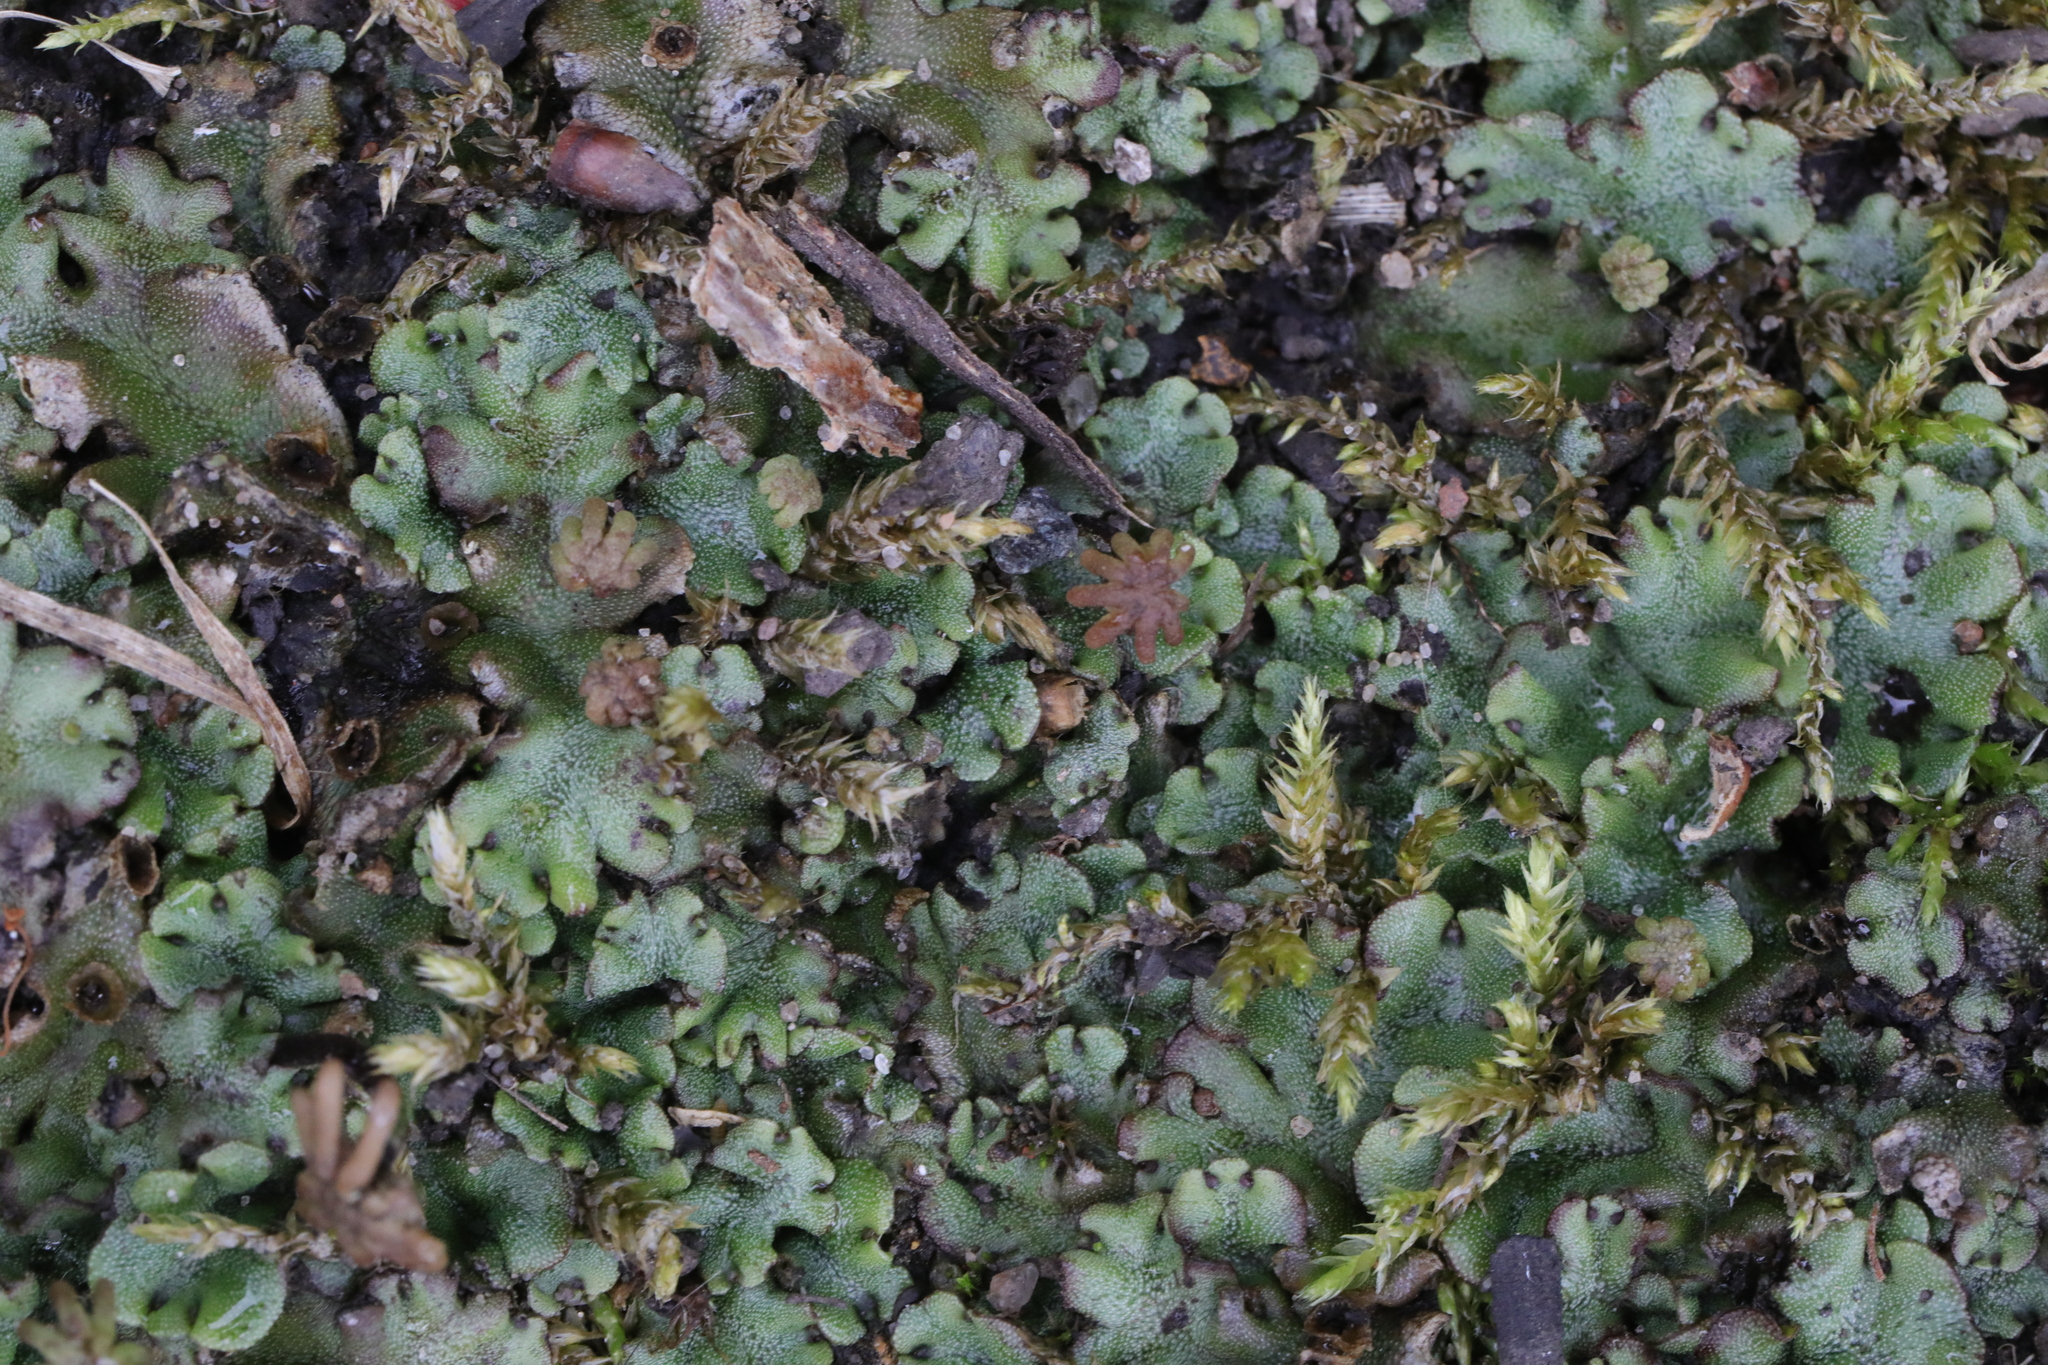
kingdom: Plantae
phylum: Marchantiophyta
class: Marchantiopsida
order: Marchantiales
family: Marchantiaceae
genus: Marchantia
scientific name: Marchantia polymorpha
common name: Common liverwort
